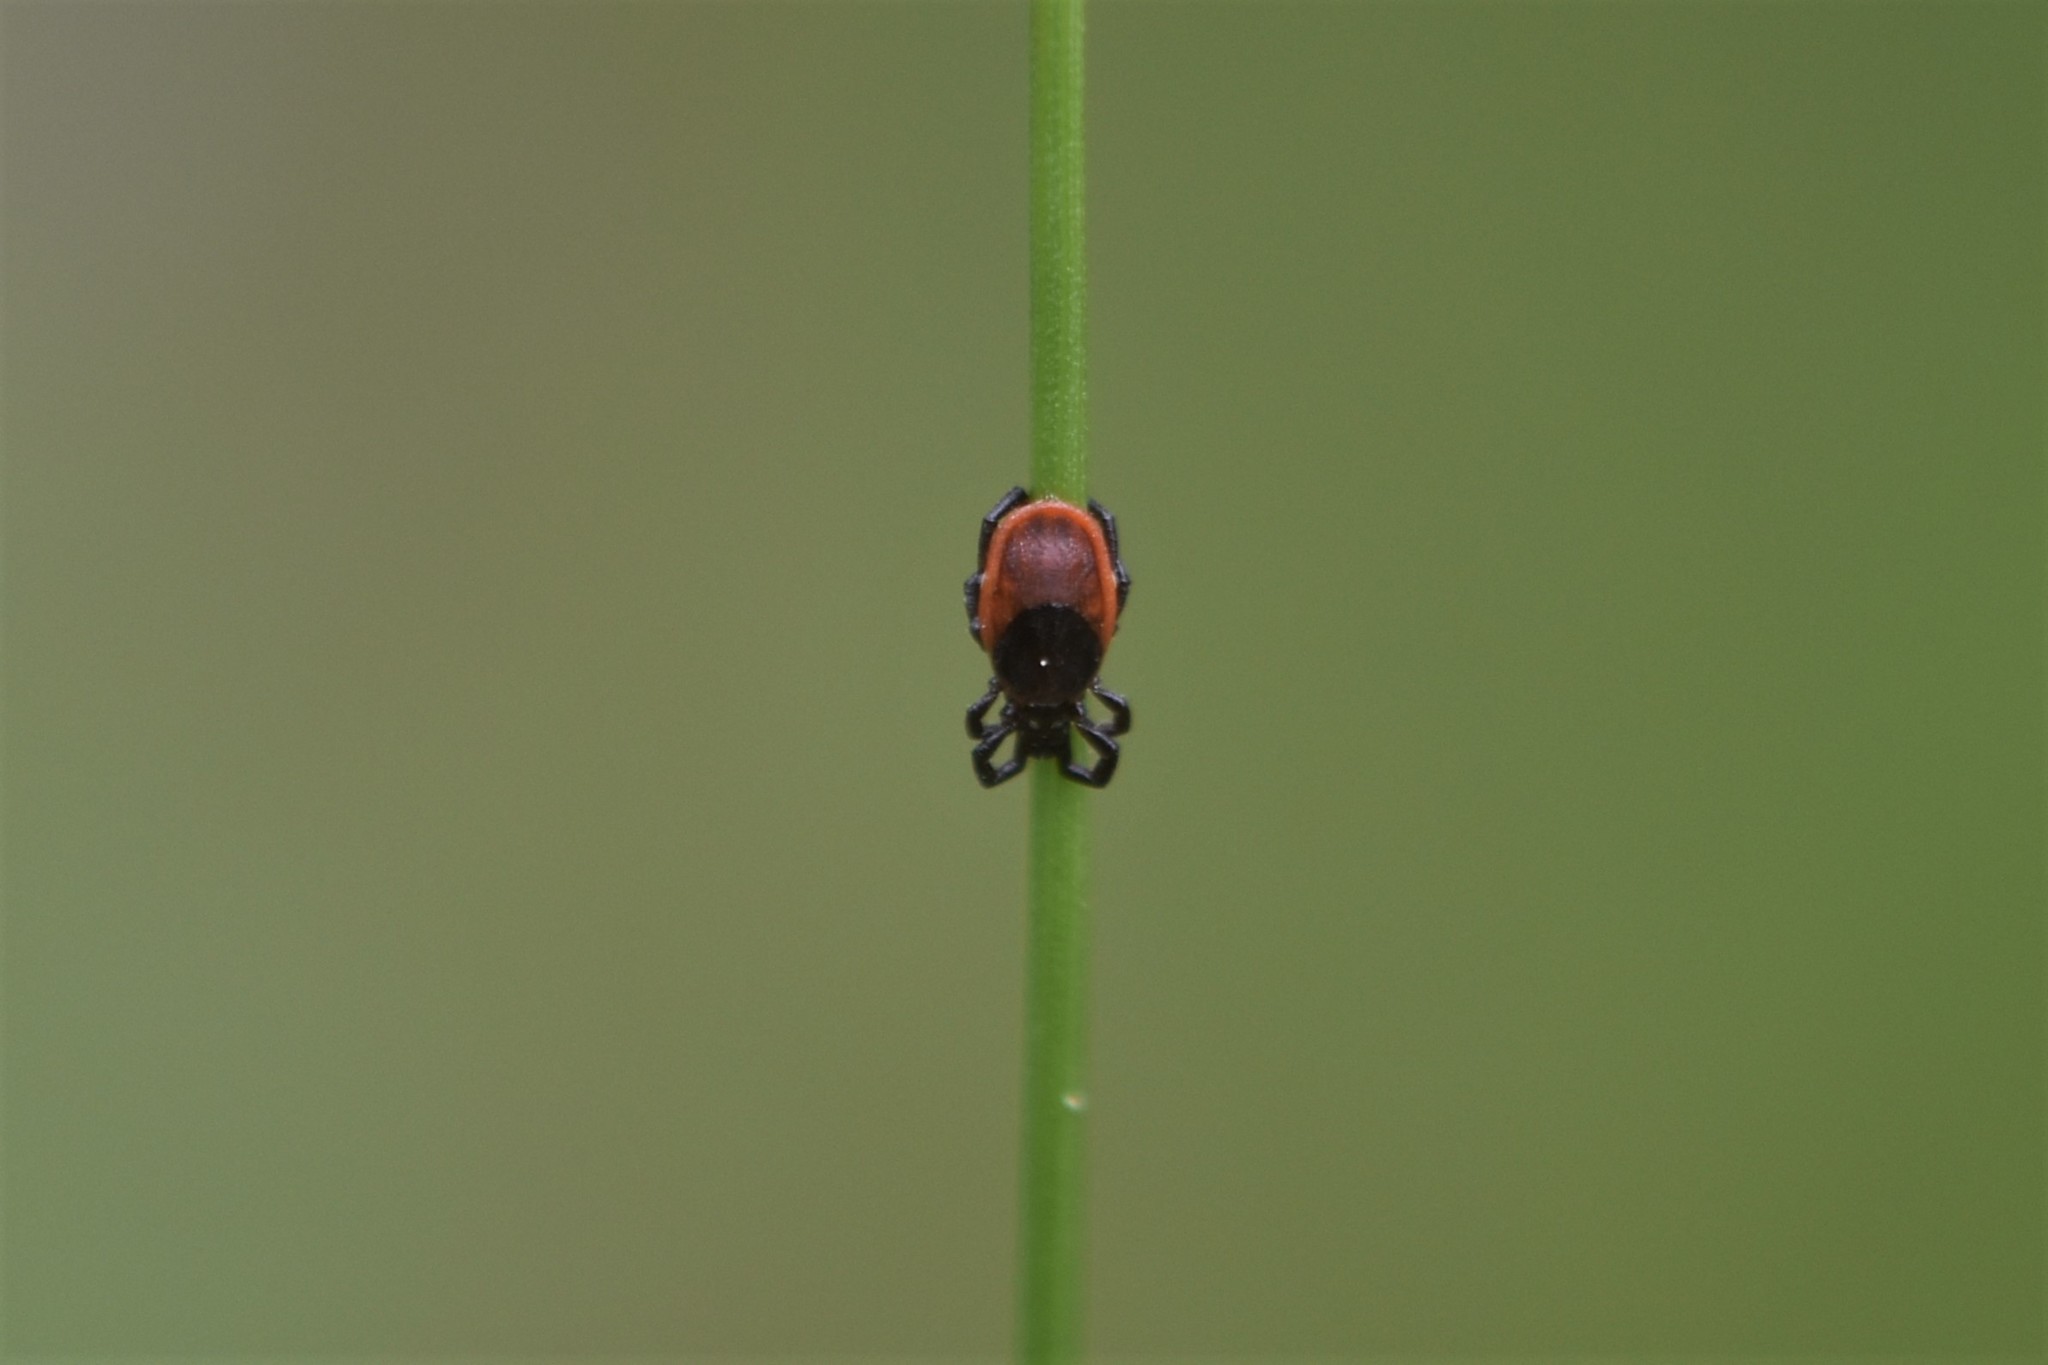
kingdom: Animalia
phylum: Arthropoda
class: Arachnida
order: Ixodida
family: Ixodidae
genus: Ixodes
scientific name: Ixodes pacificus
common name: California black-legged tick
